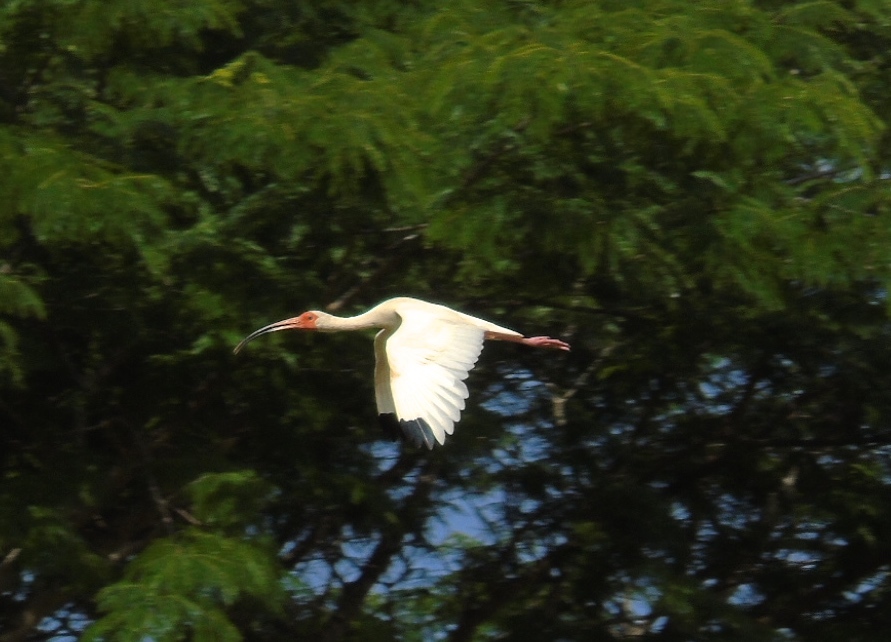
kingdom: Animalia
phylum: Chordata
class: Aves
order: Pelecaniformes
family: Threskiornithidae
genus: Eudocimus
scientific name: Eudocimus albus
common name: White ibis
